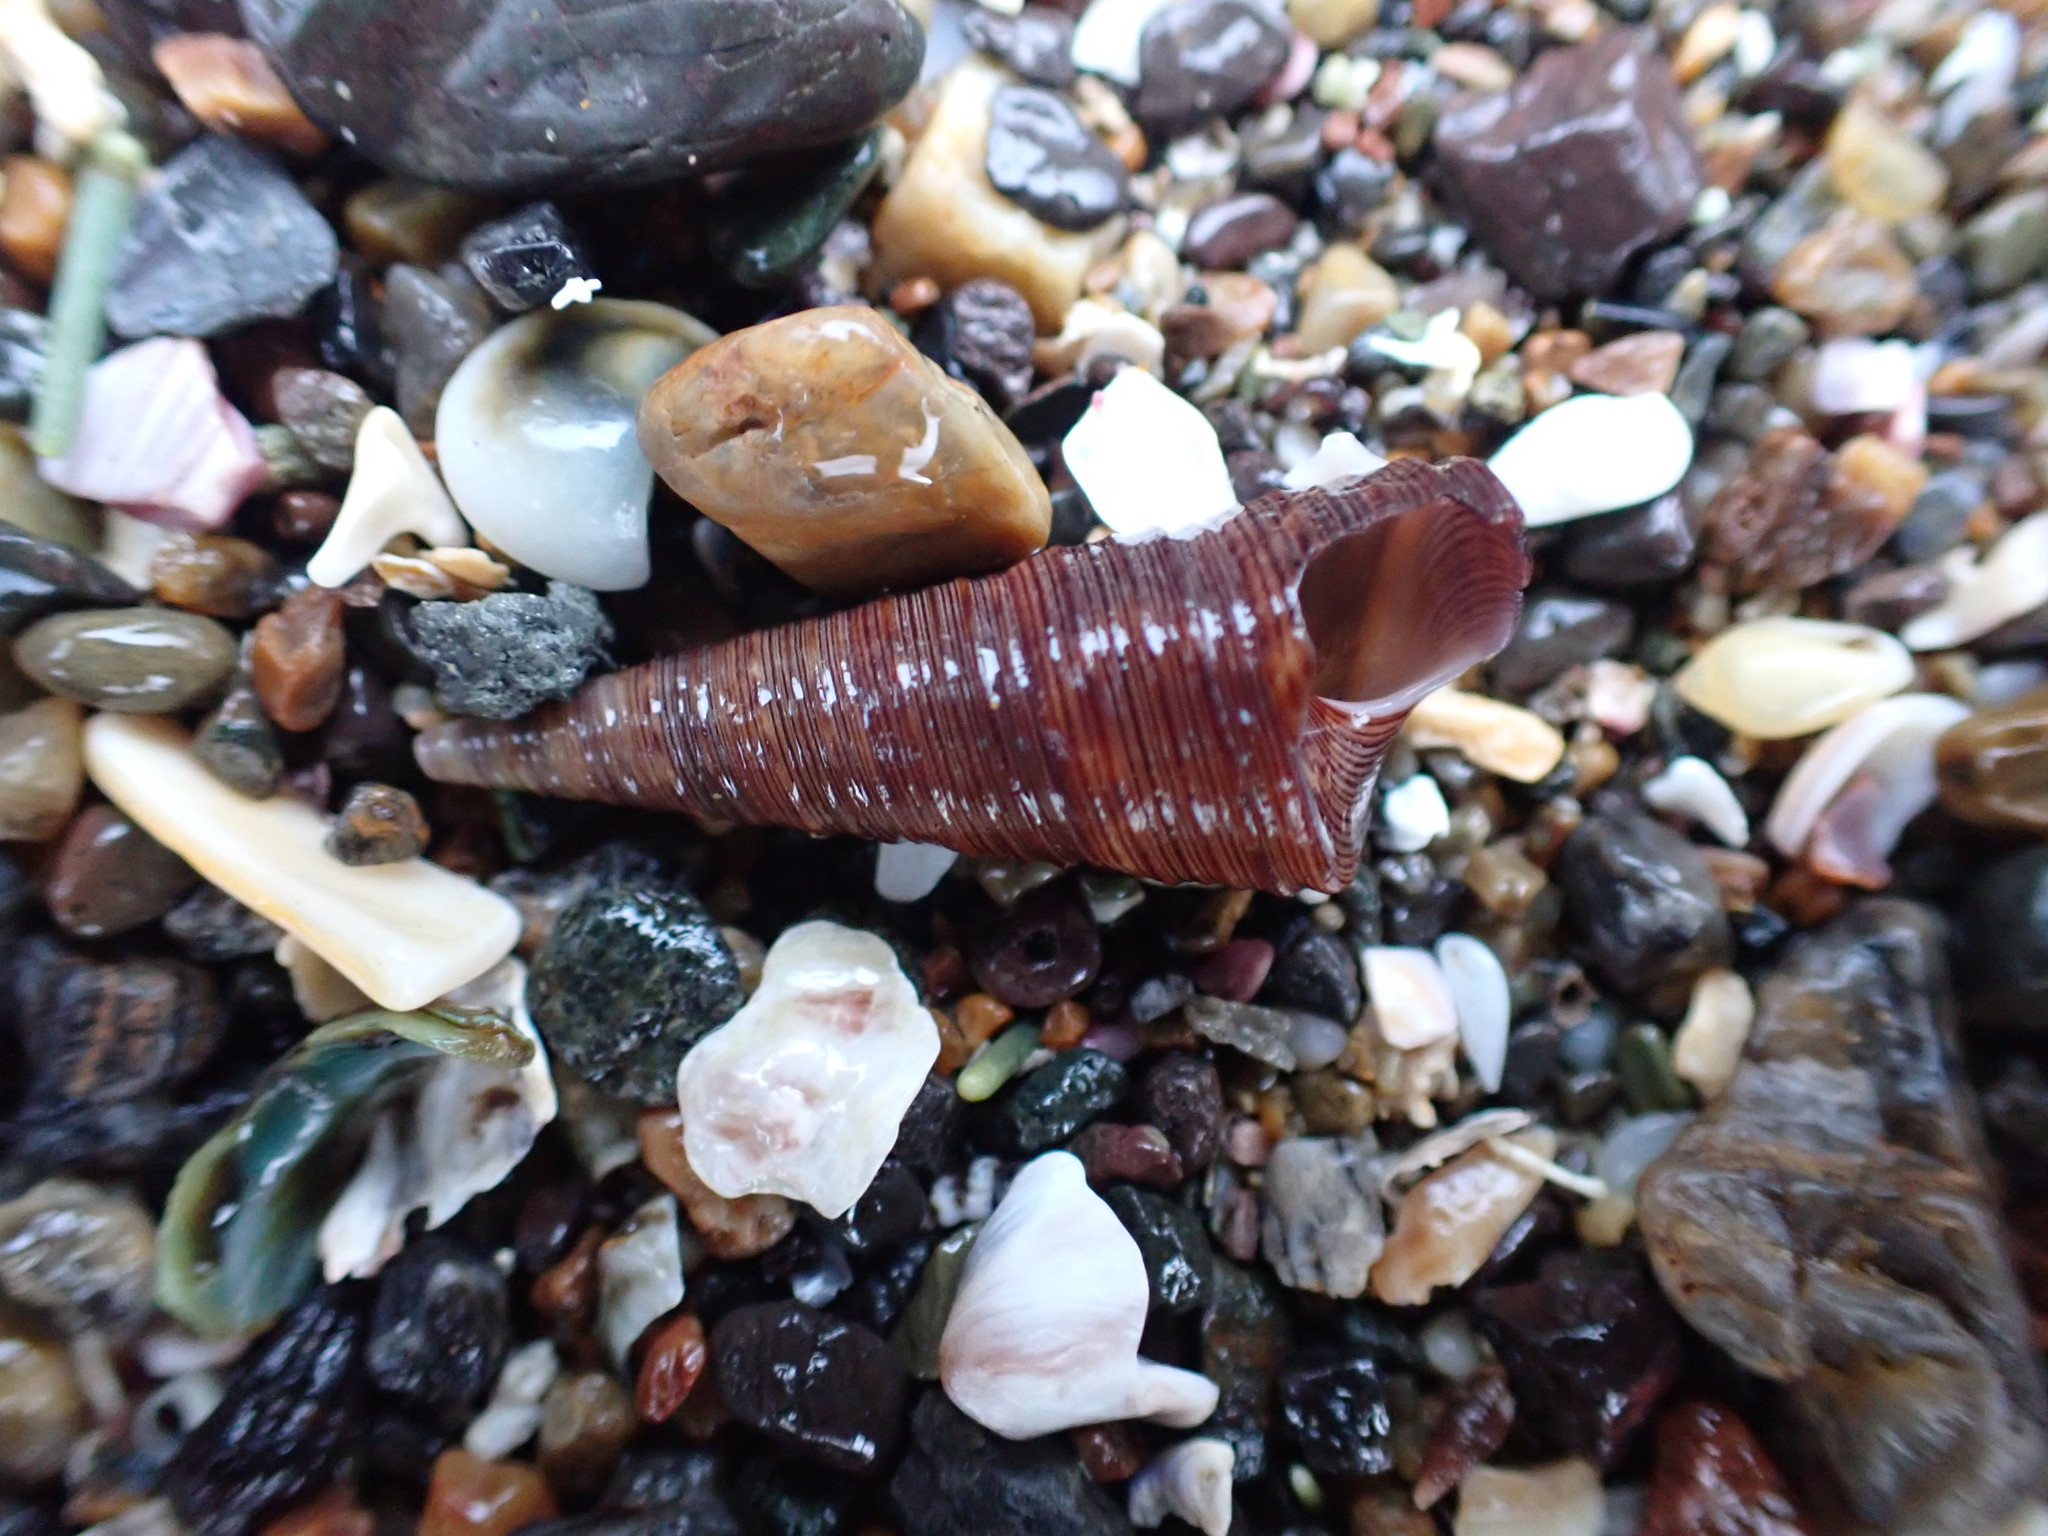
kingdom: Animalia
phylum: Mollusca
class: Gastropoda
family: Turritellidae
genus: Maoricolpus
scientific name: Maoricolpus roseus
